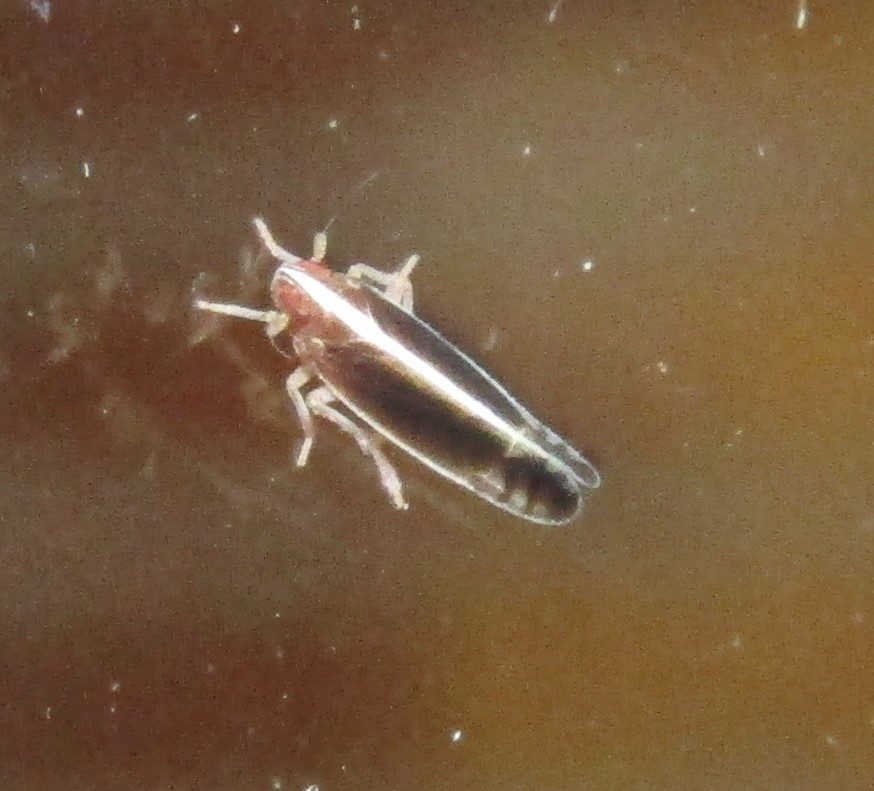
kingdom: Animalia
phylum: Arthropoda
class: Insecta
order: Hemiptera
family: Delphacidae
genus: Stenocranus
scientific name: Stenocranus brunneus
